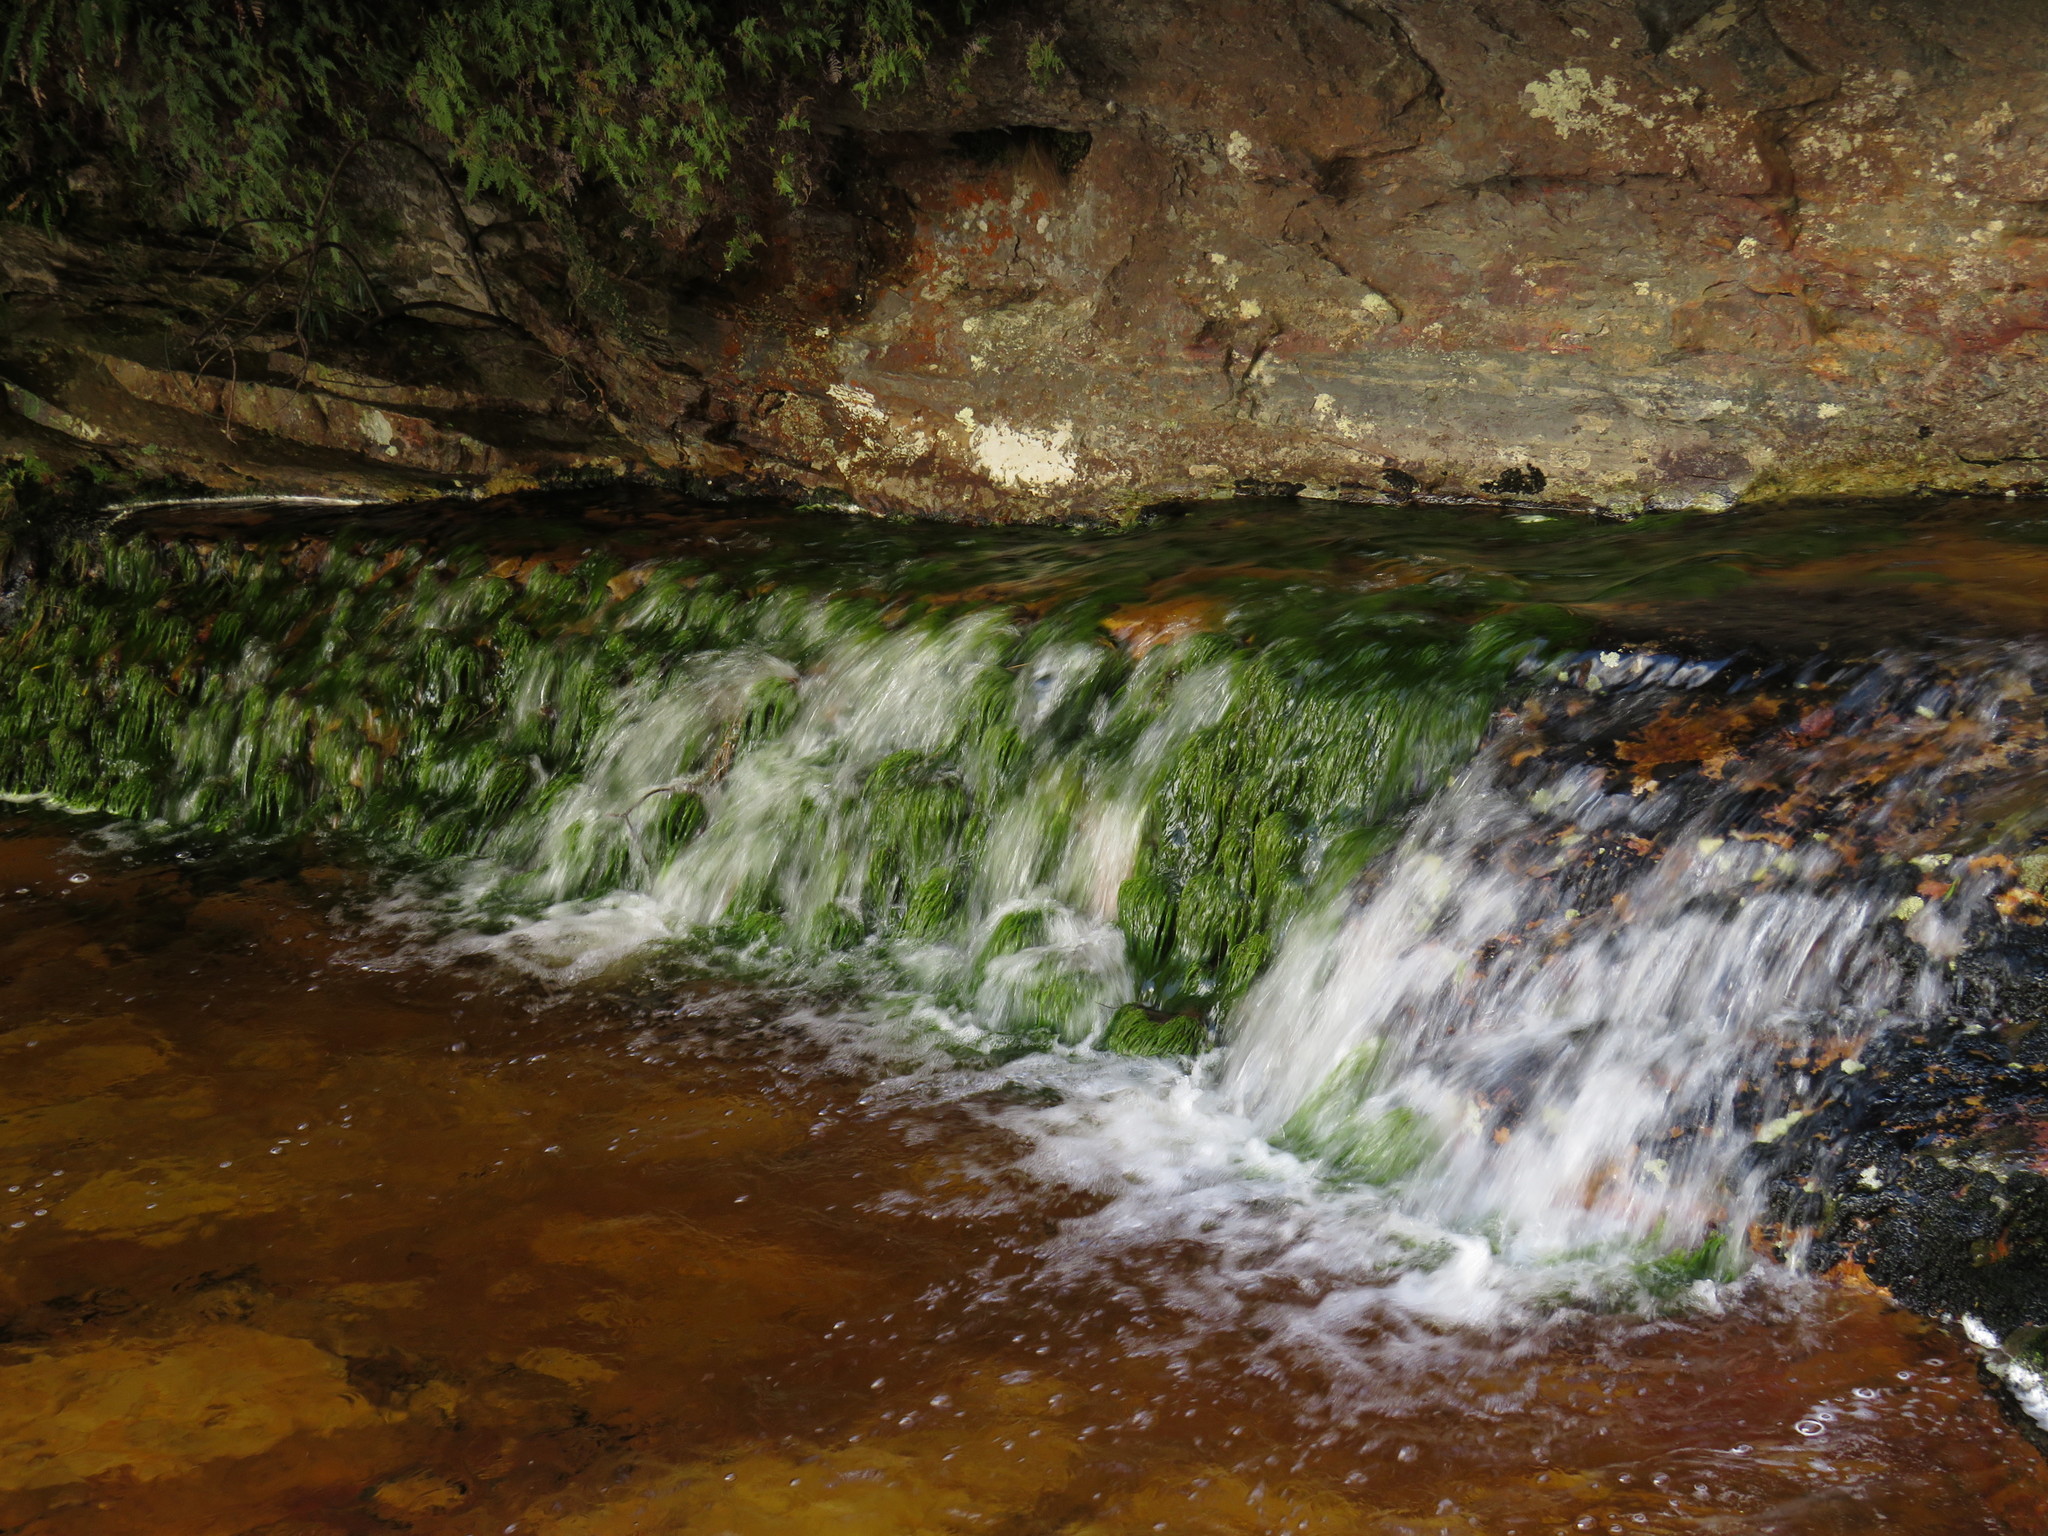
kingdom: Plantae
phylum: Tracheophyta
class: Liliopsida
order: Poales
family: Cyperaceae
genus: Isolepis
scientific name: Isolepis digitata
